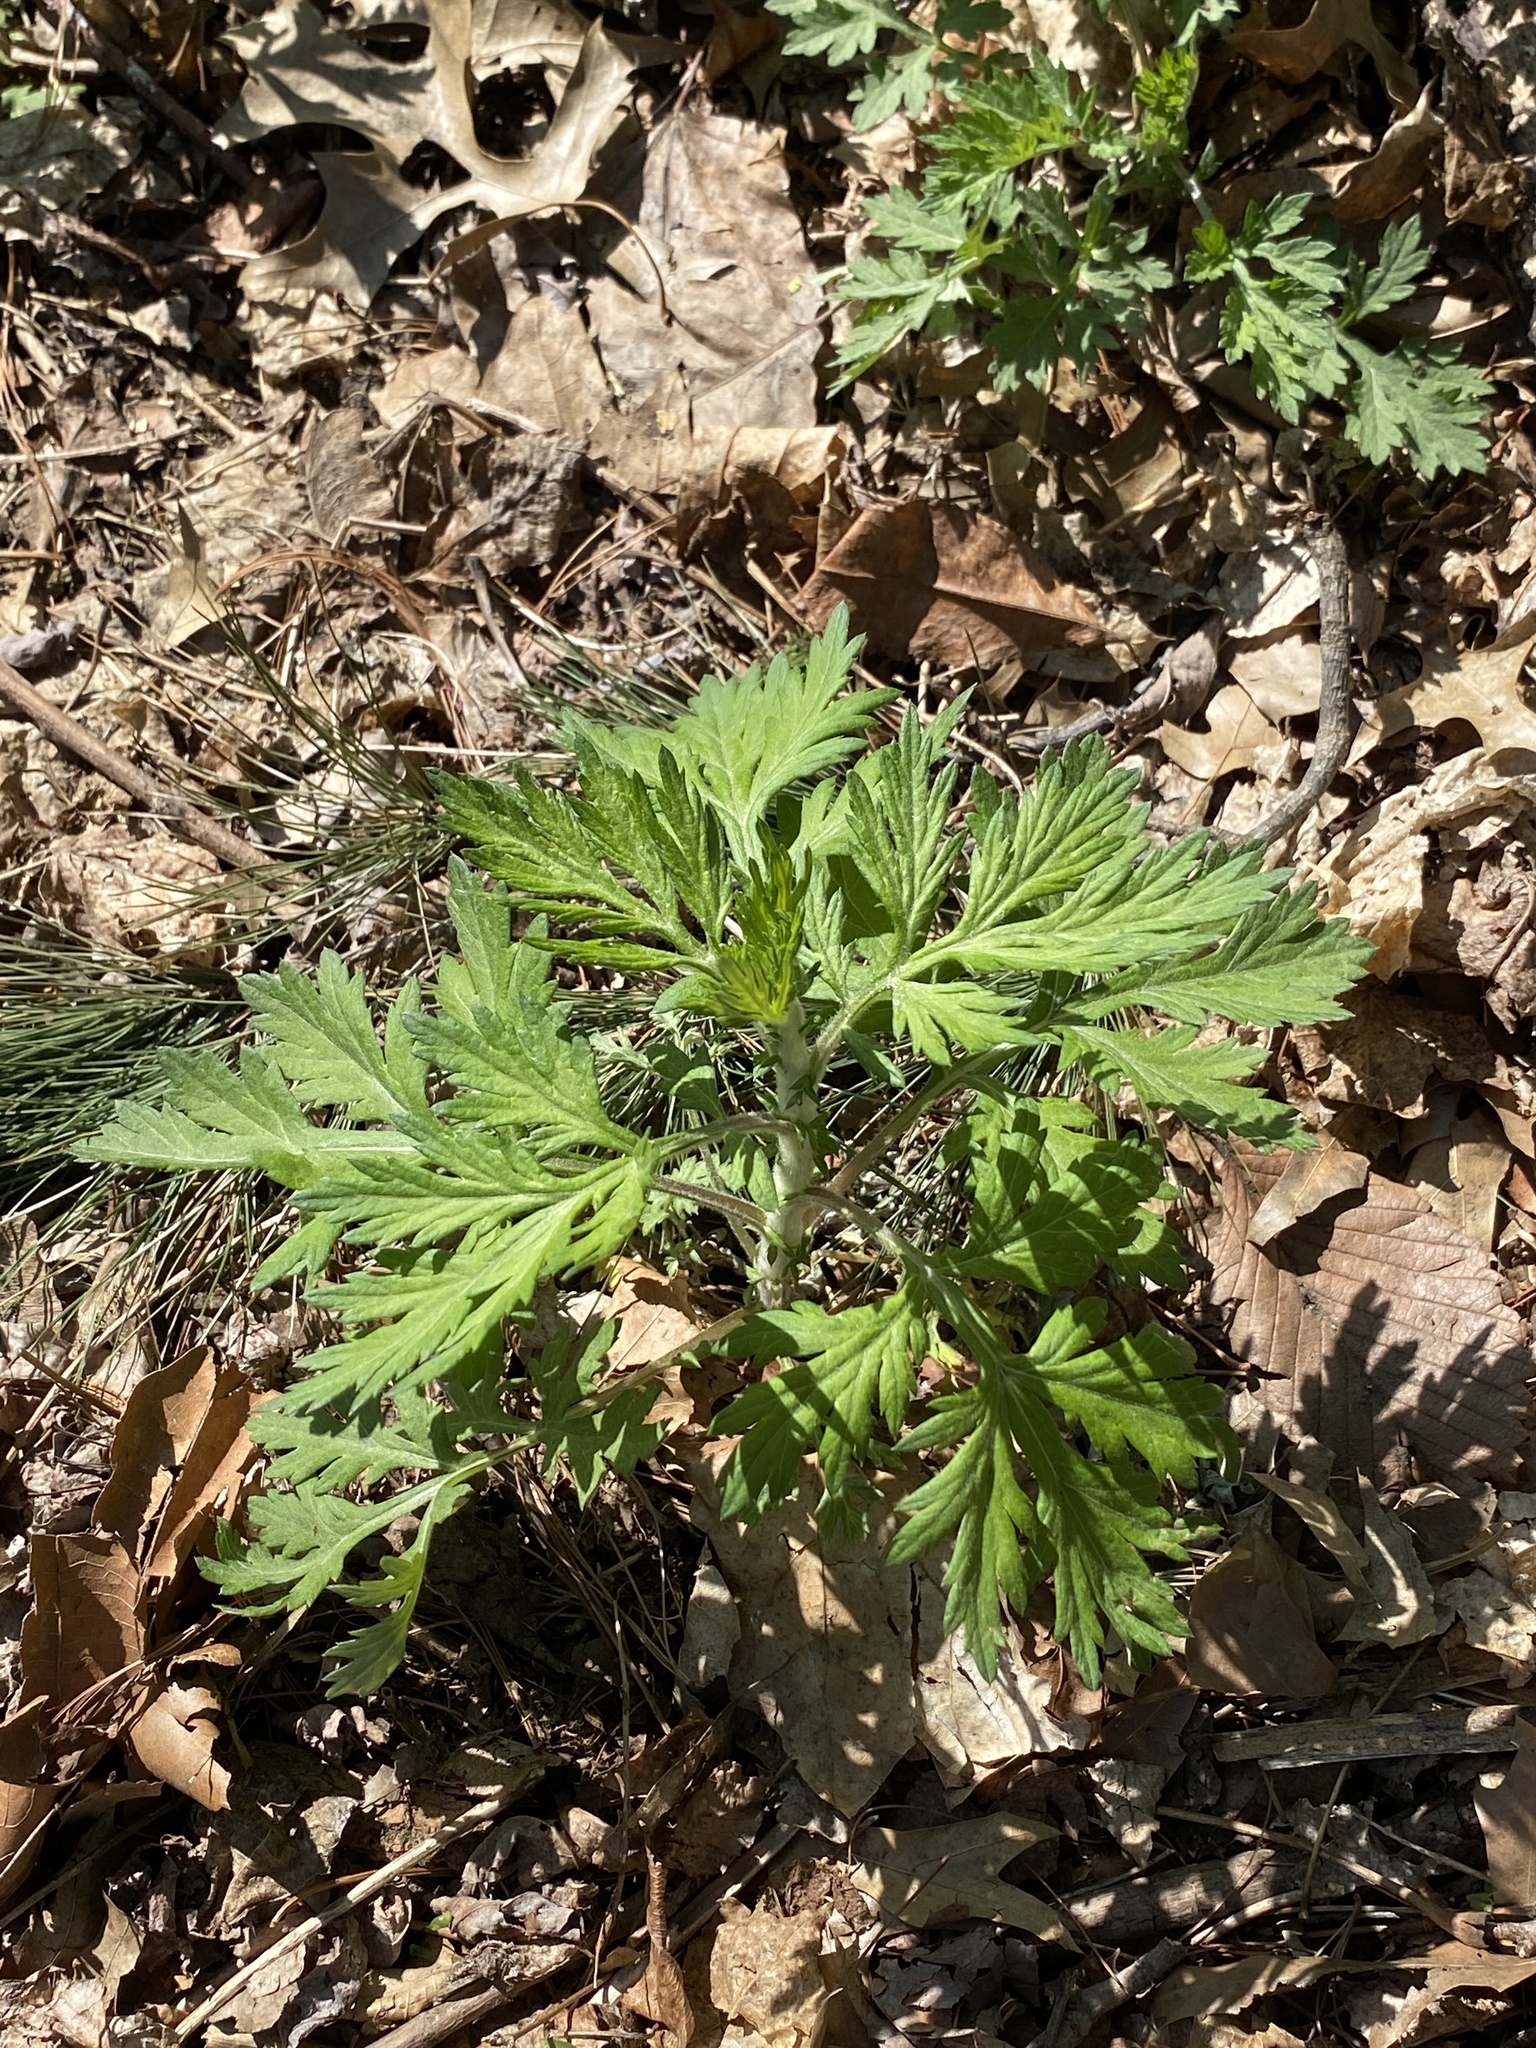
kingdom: Plantae
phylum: Tracheophyta
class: Magnoliopsida
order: Asterales
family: Asteraceae
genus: Artemisia
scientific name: Artemisia vulgaris
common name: Mugwort
